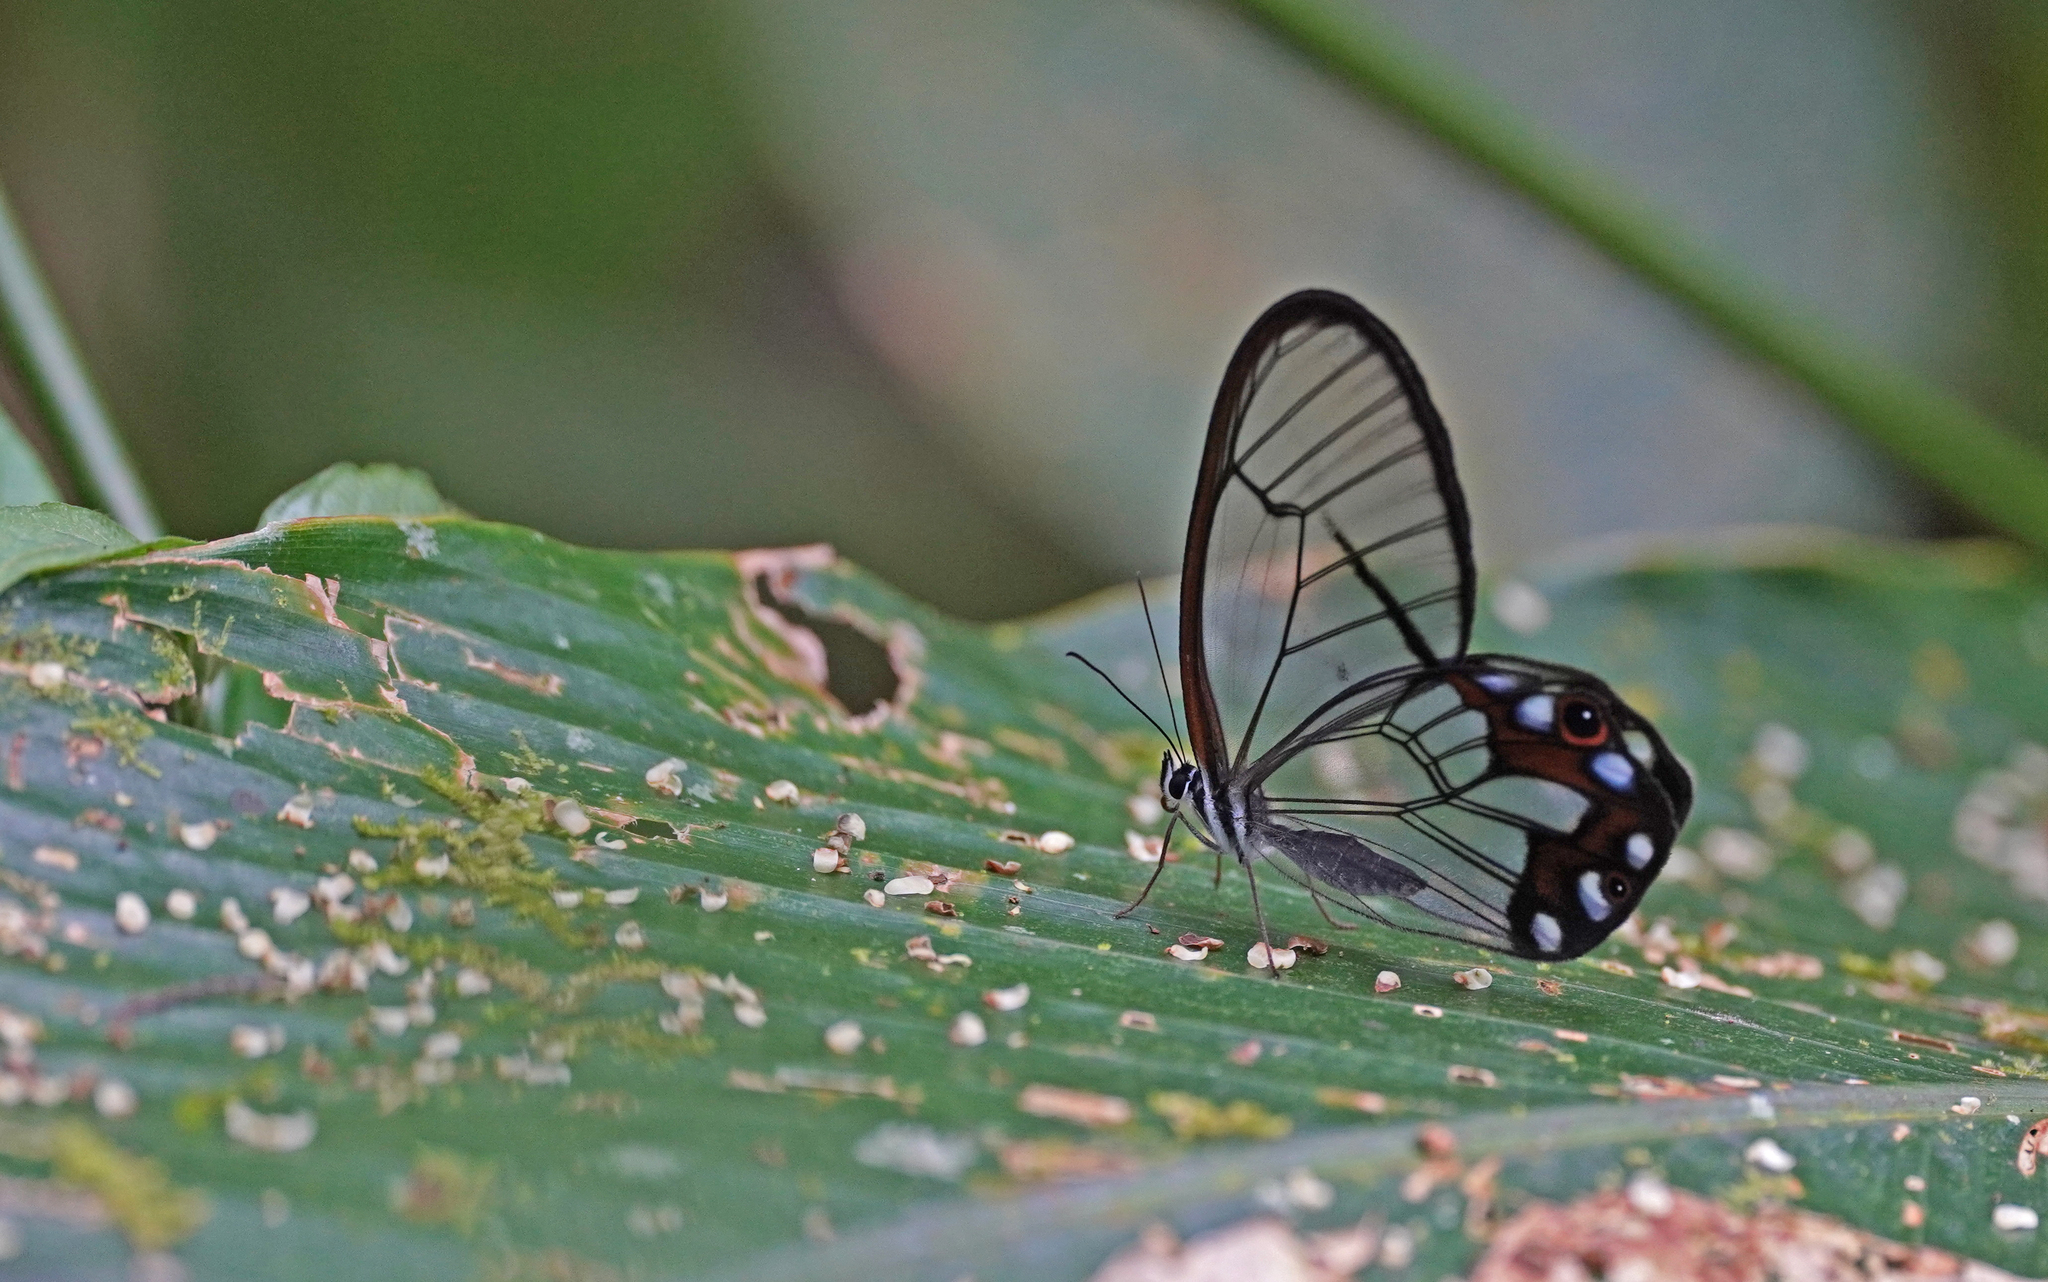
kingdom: Animalia
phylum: Arthropoda
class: Insecta
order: Lepidoptera
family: Nymphalidae
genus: Pseudohaetera
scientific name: Pseudohaetera hypaesia
